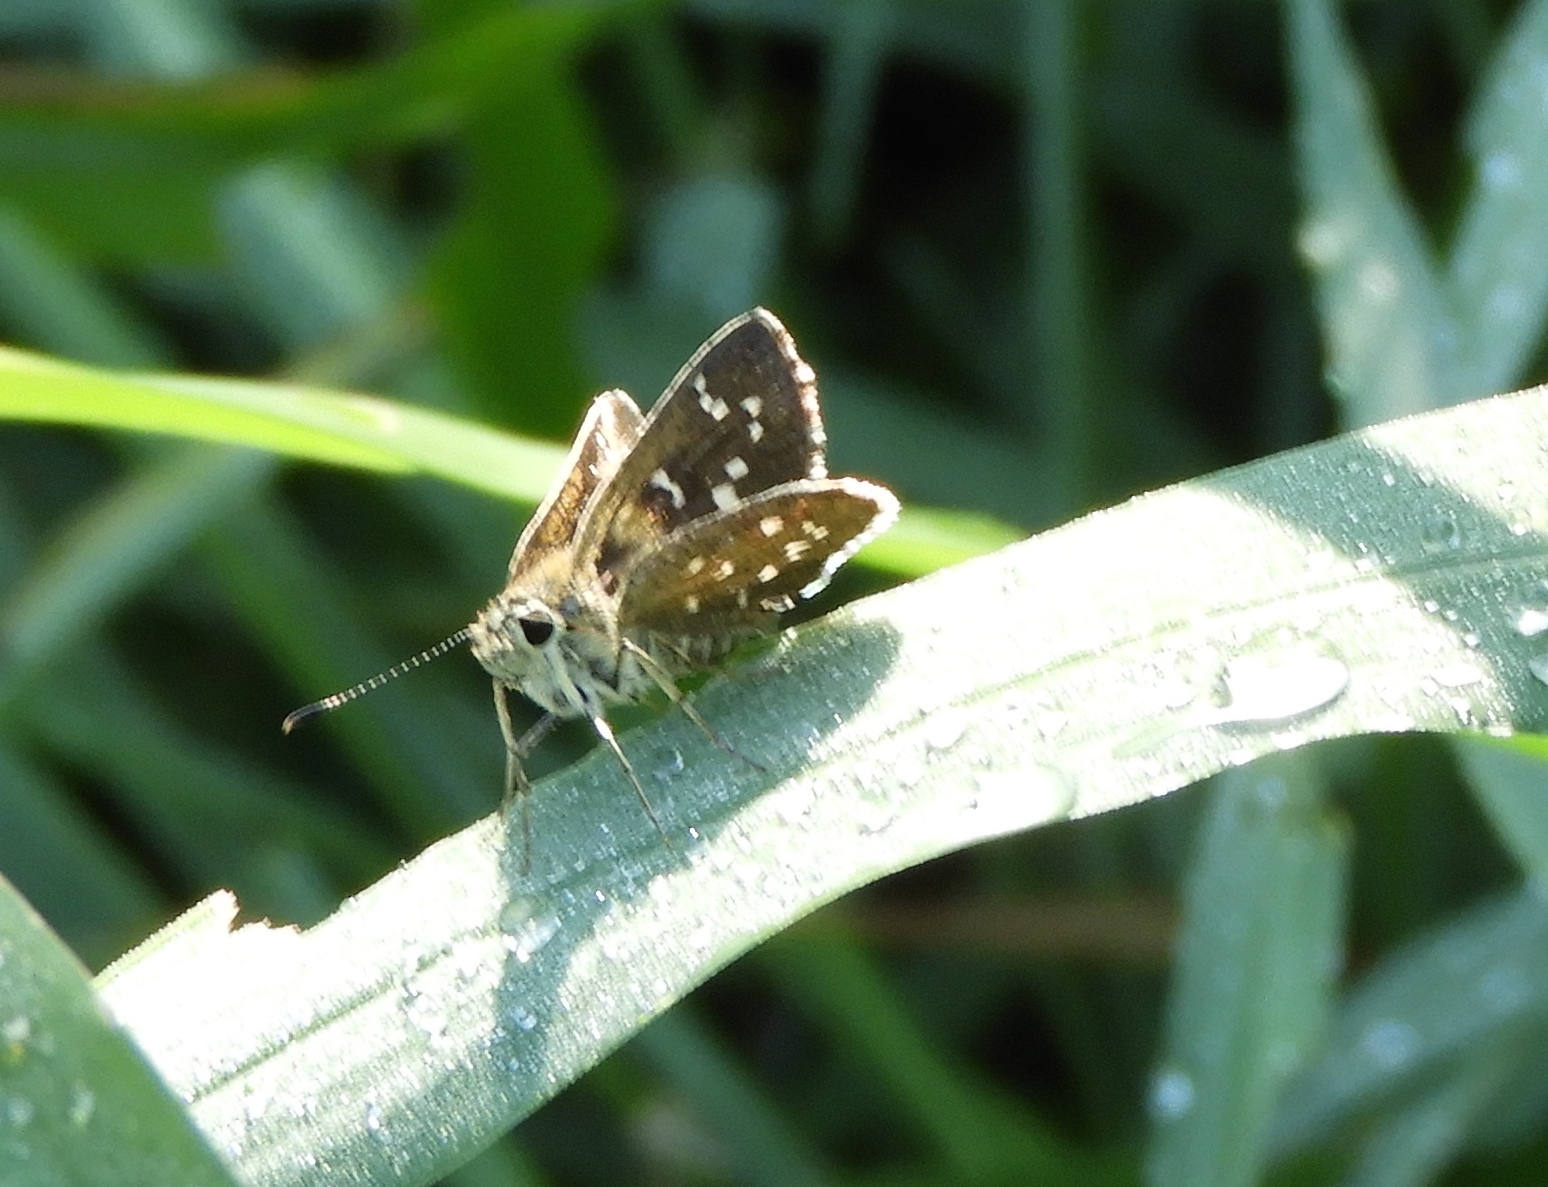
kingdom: Animalia
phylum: Arthropoda
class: Insecta
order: Lepidoptera
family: Hesperiidae
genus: Mastor
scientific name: Mastor tolteca
